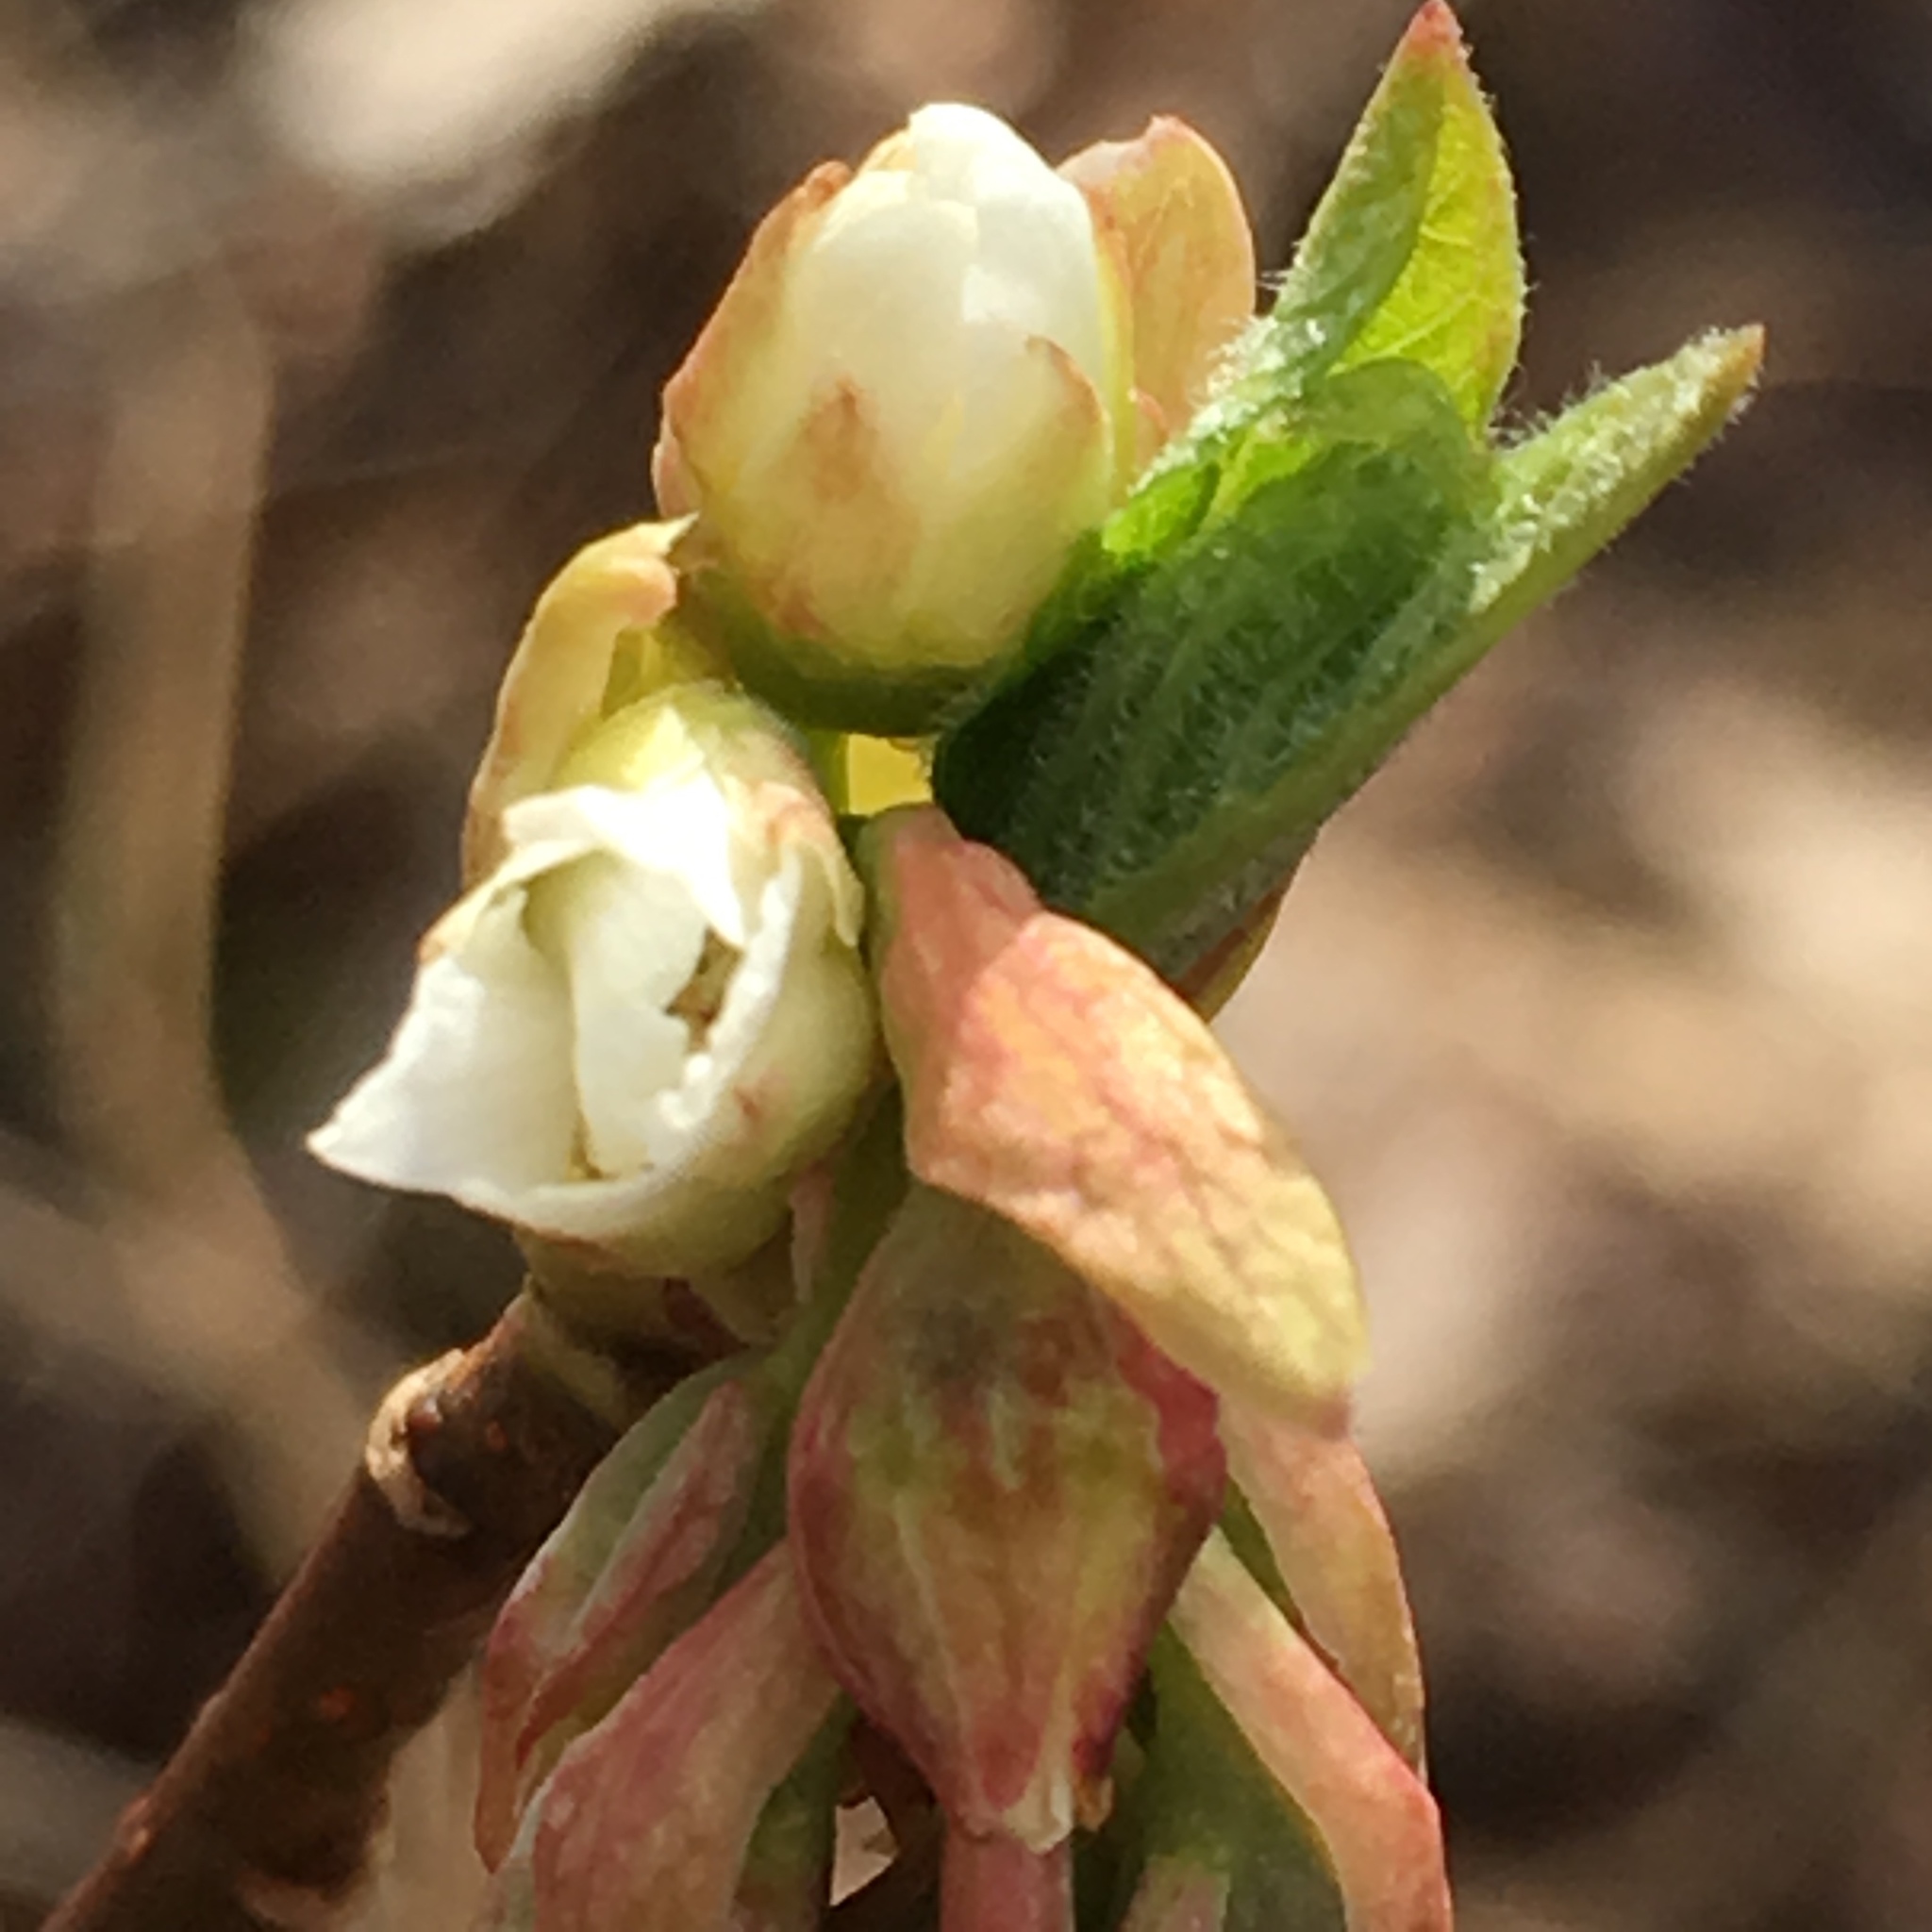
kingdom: Plantae
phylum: Tracheophyta
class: Magnoliopsida
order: Rosales
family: Rosaceae
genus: Oemleria
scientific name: Oemleria cerasiformis
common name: Osoberry
